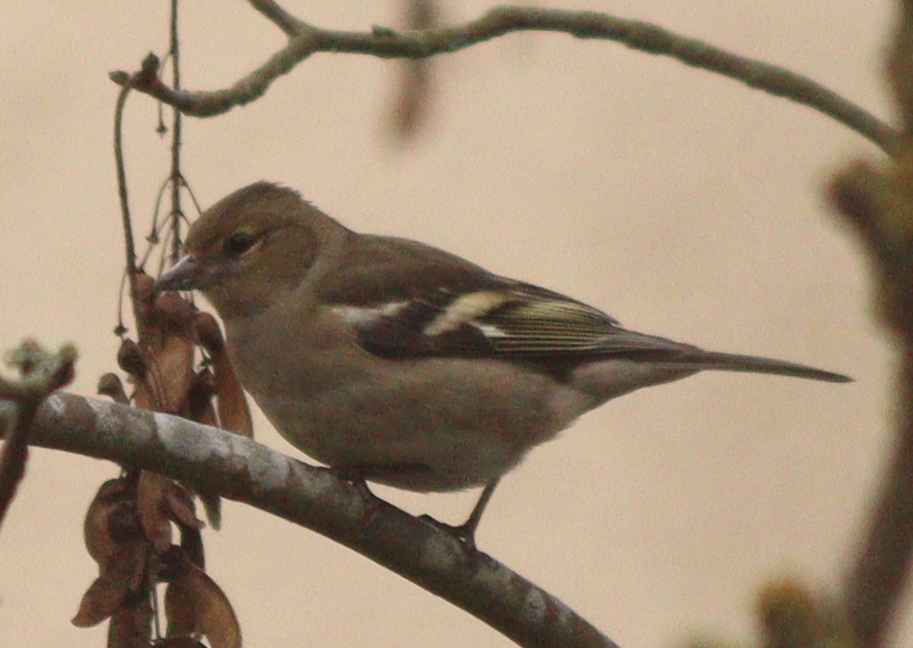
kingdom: Animalia
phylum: Chordata
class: Aves
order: Passeriformes
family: Fringillidae
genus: Fringilla
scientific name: Fringilla coelebs
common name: Common chaffinch
